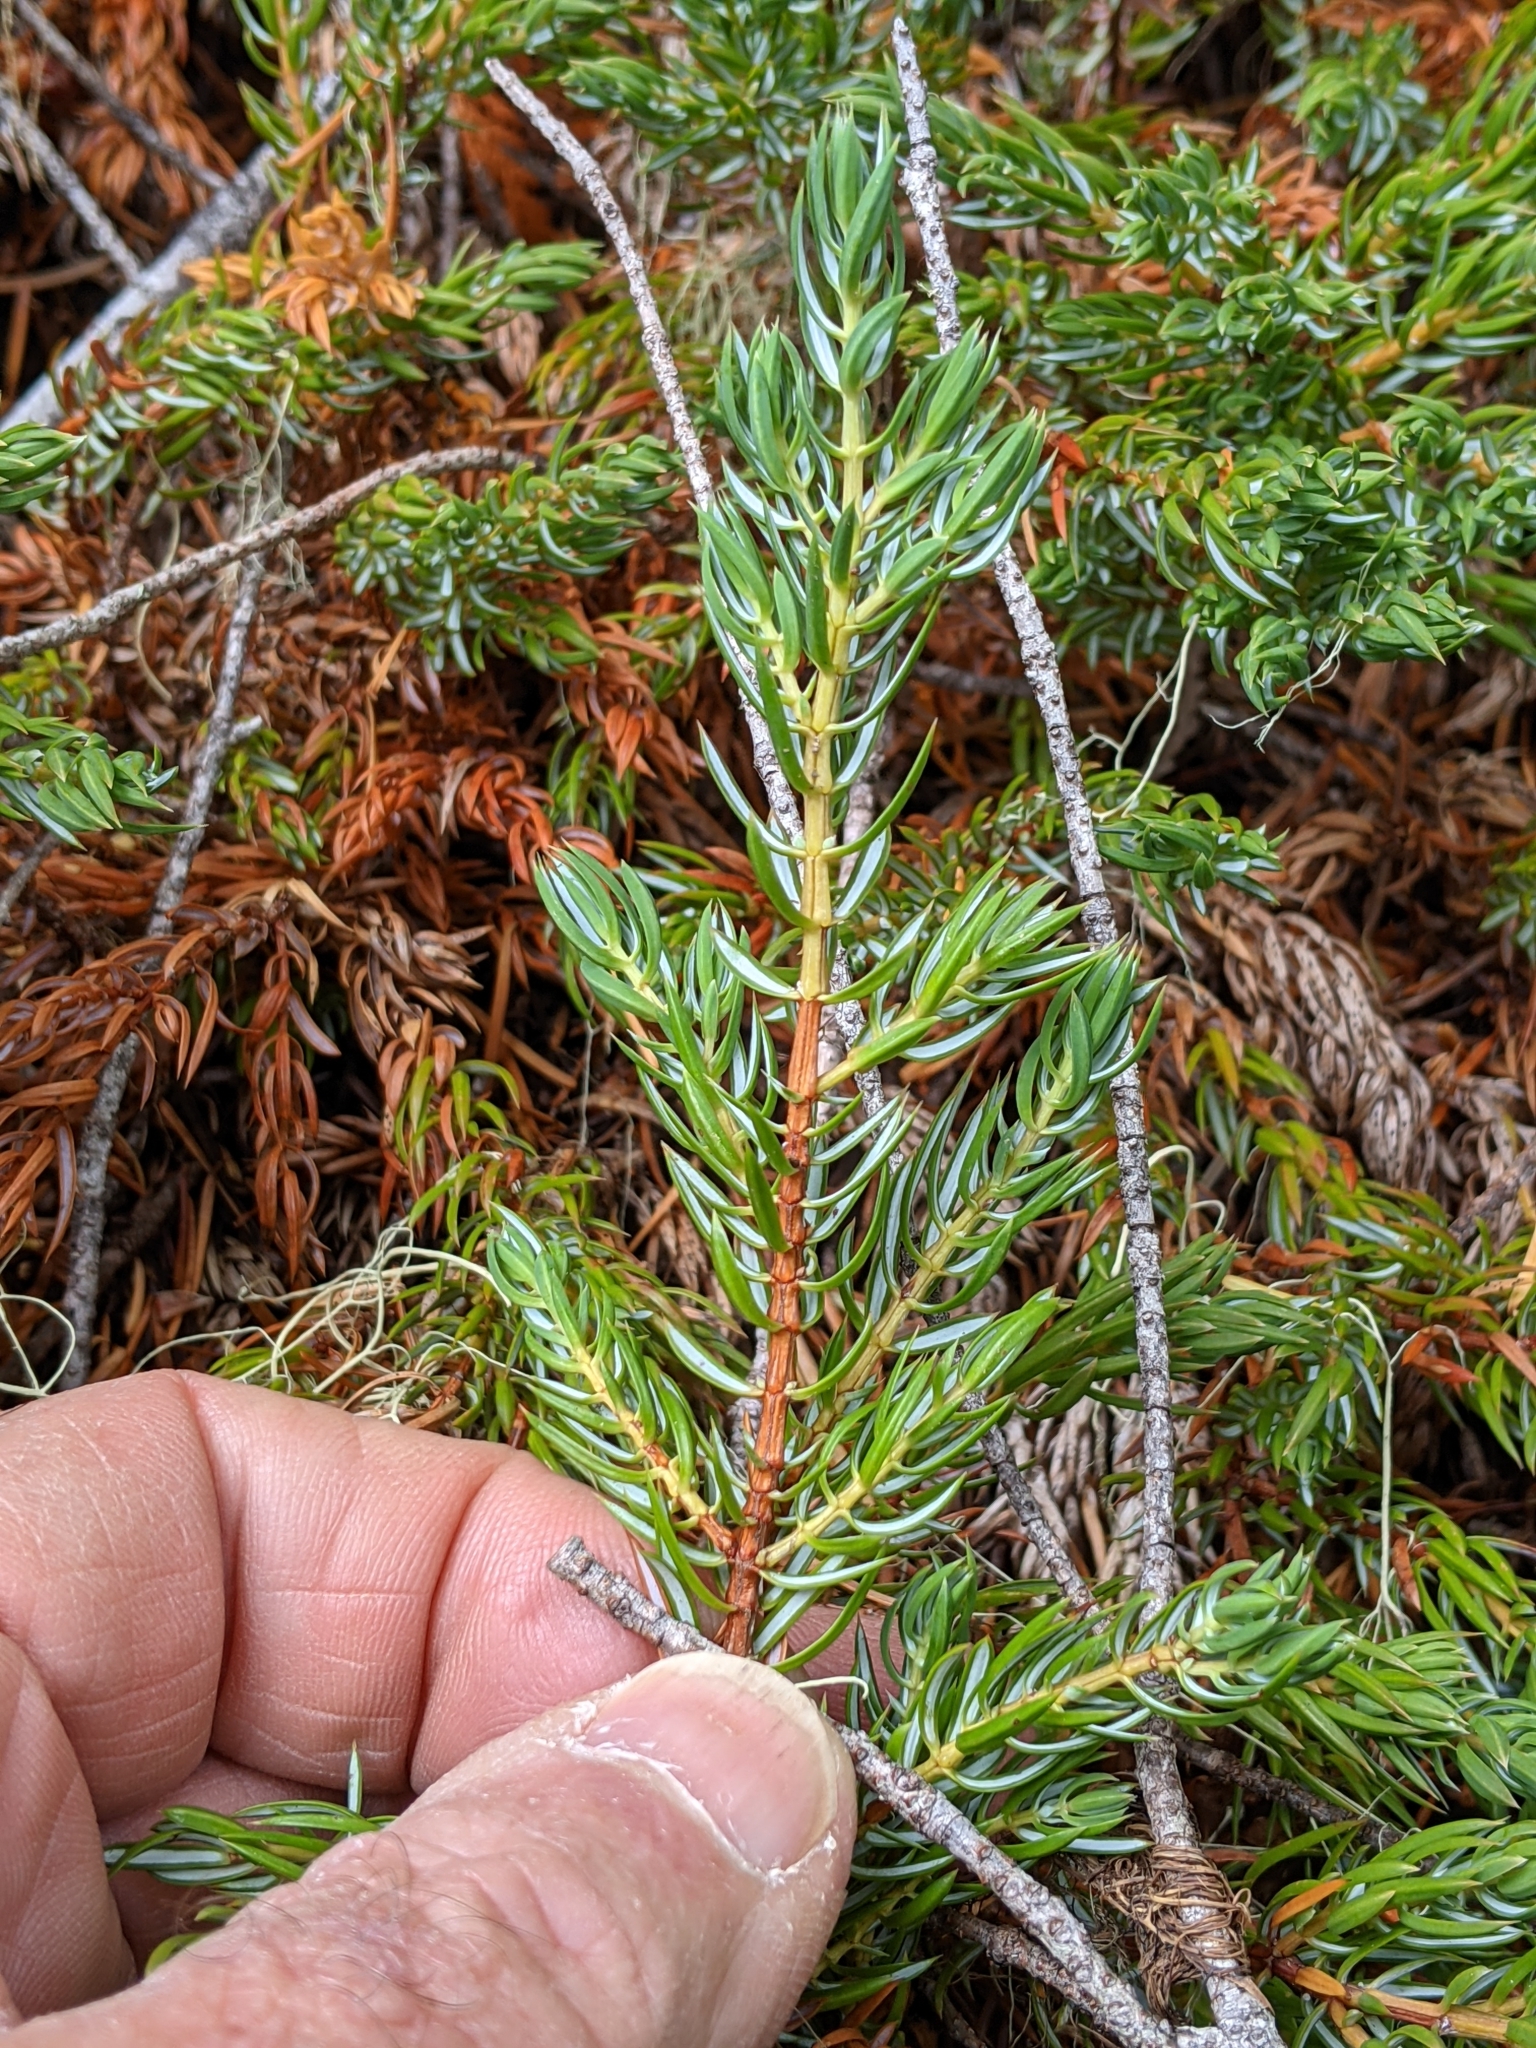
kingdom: Plantae
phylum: Tracheophyta
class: Pinopsida
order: Pinales
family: Cupressaceae
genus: Juniperus
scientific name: Juniperus communis
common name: Common juniper
